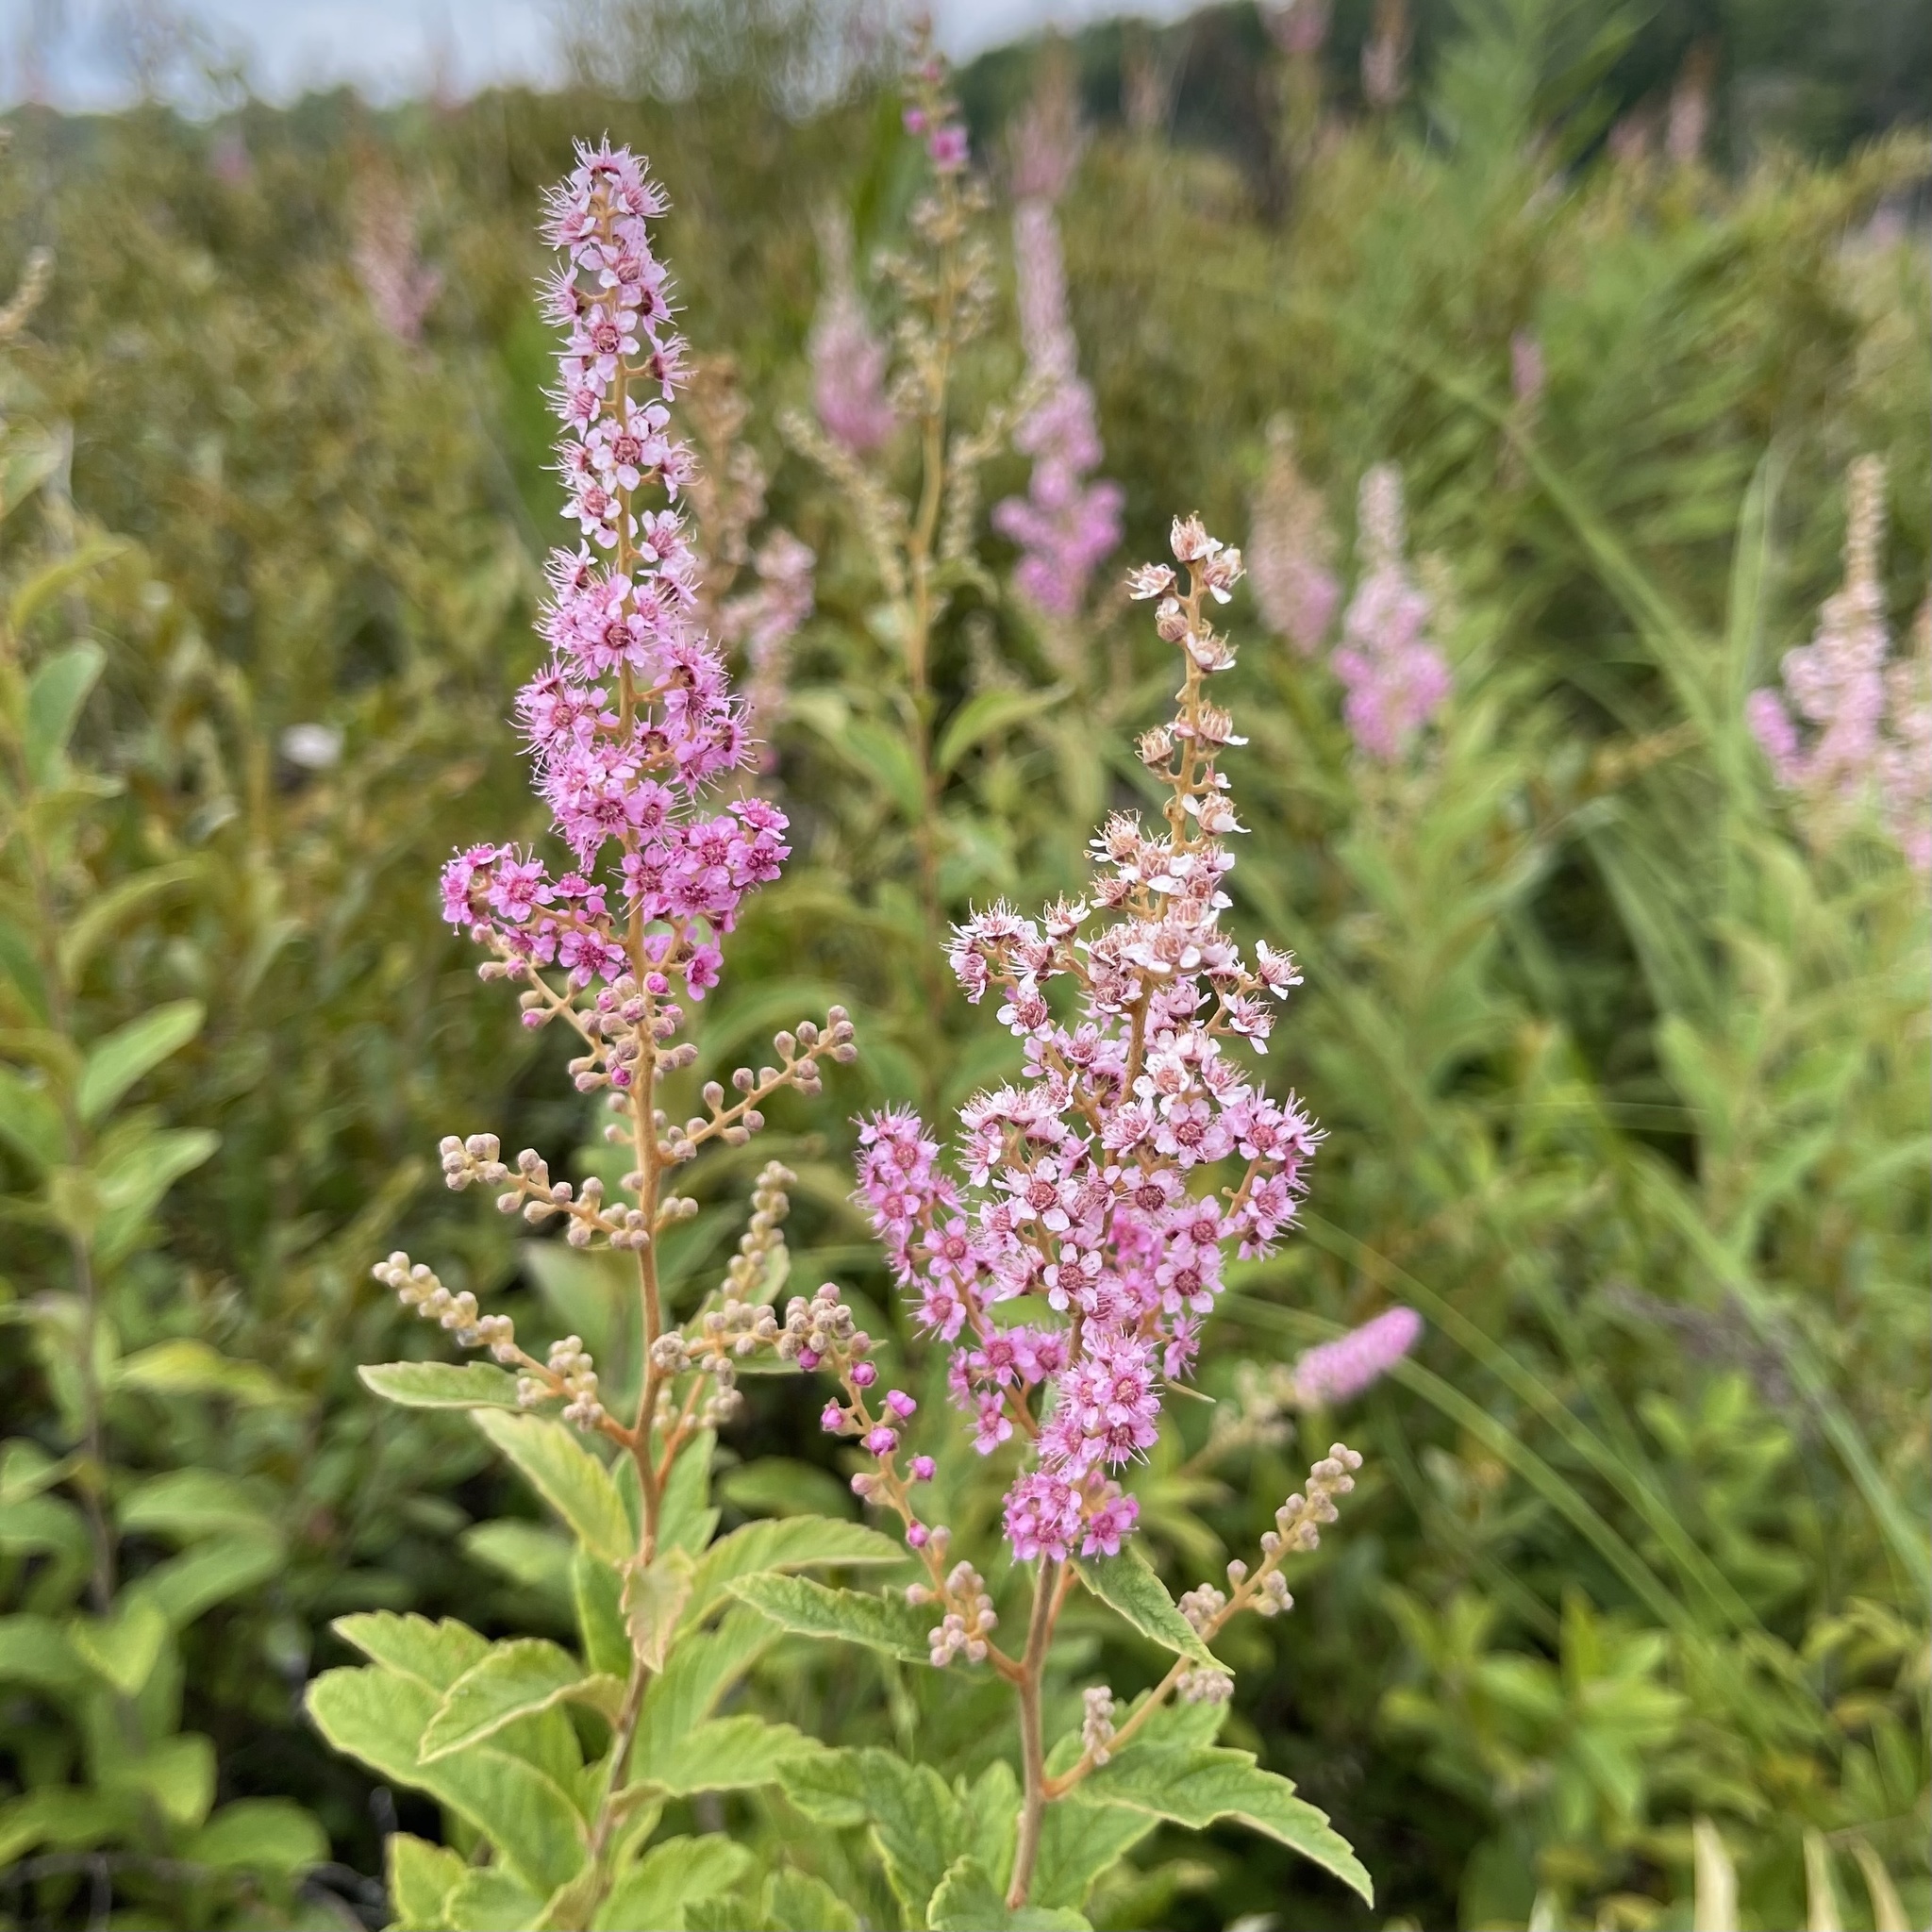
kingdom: Plantae
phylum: Tracheophyta
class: Magnoliopsida
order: Rosales
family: Rosaceae
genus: Spiraea
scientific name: Spiraea tomentosa
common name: Hardhack
